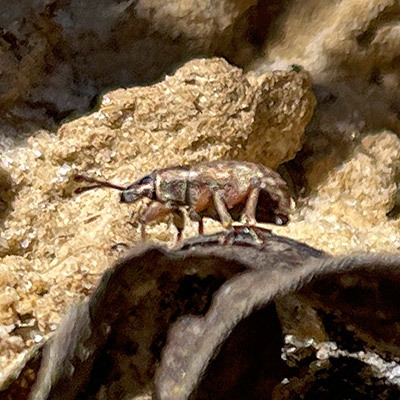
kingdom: Animalia
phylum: Arthropoda
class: Insecta
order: Coleoptera
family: Curculionidae
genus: Peritelus
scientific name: Peritelus sphaeroides
